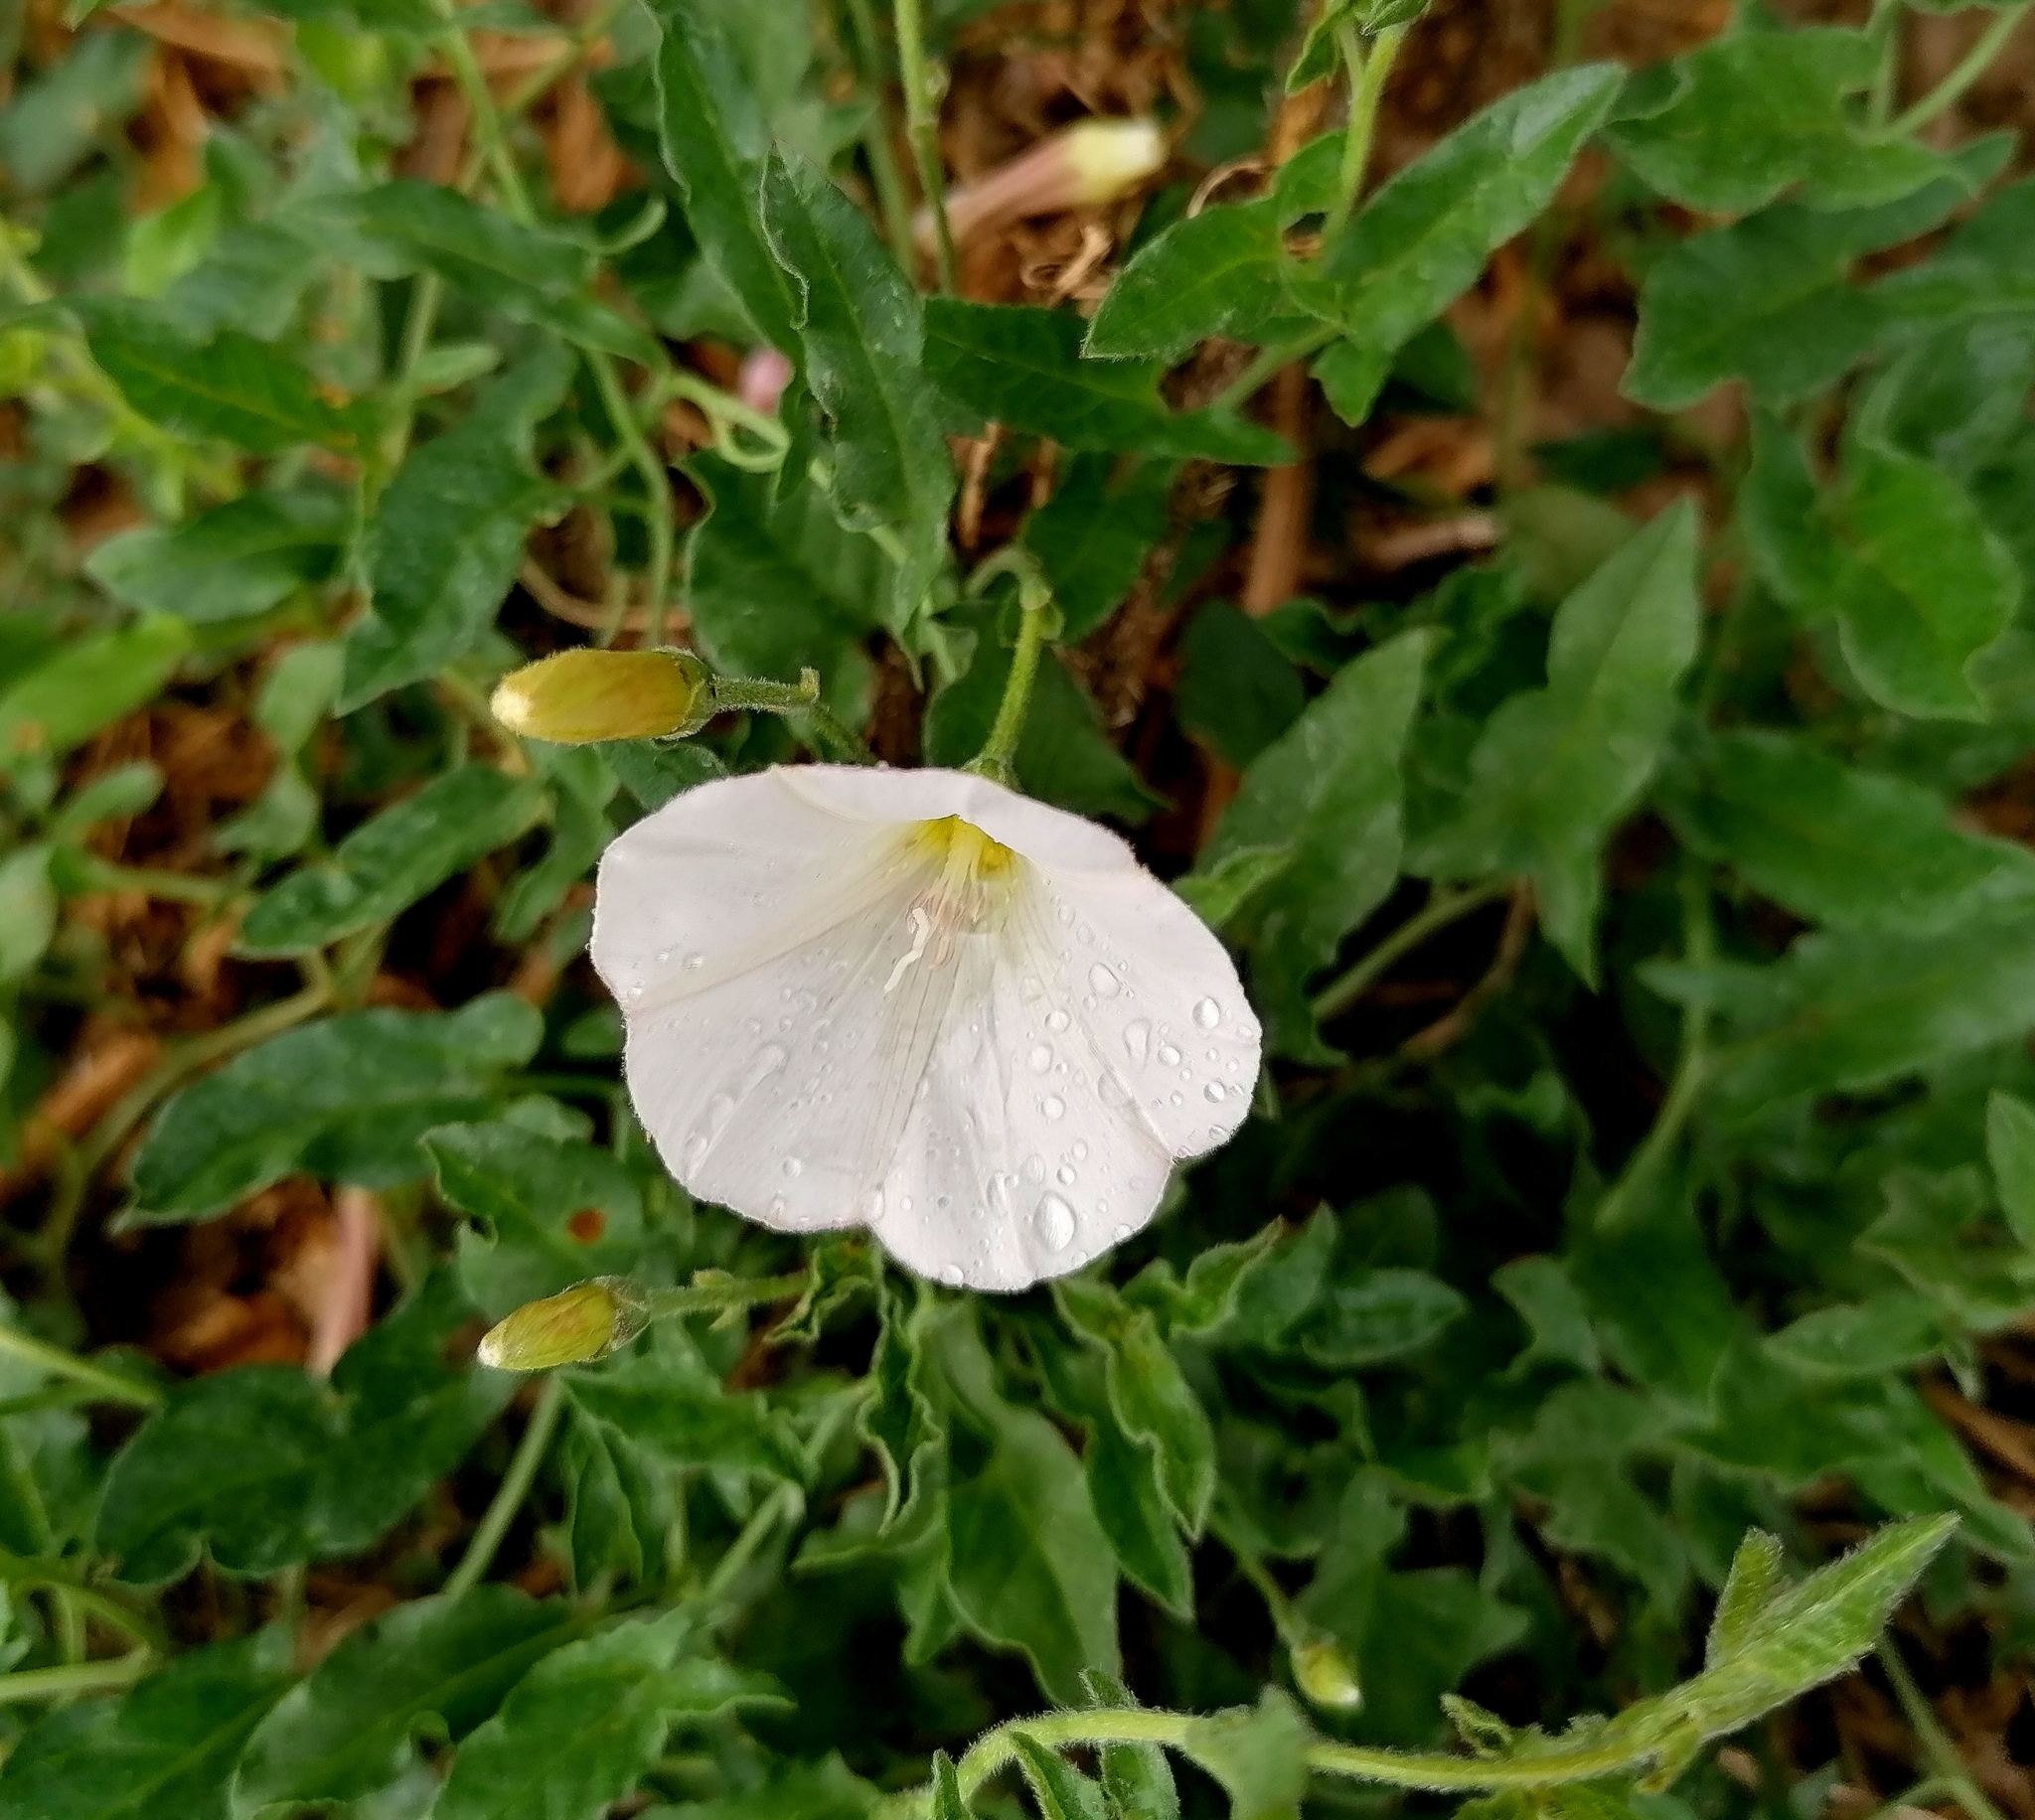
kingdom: Plantae
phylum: Tracheophyta
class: Magnoliopsida
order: Solanales
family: Convolvulaceae
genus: Convolvulus
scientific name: Convolvulus arvensis
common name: Field bindweed
